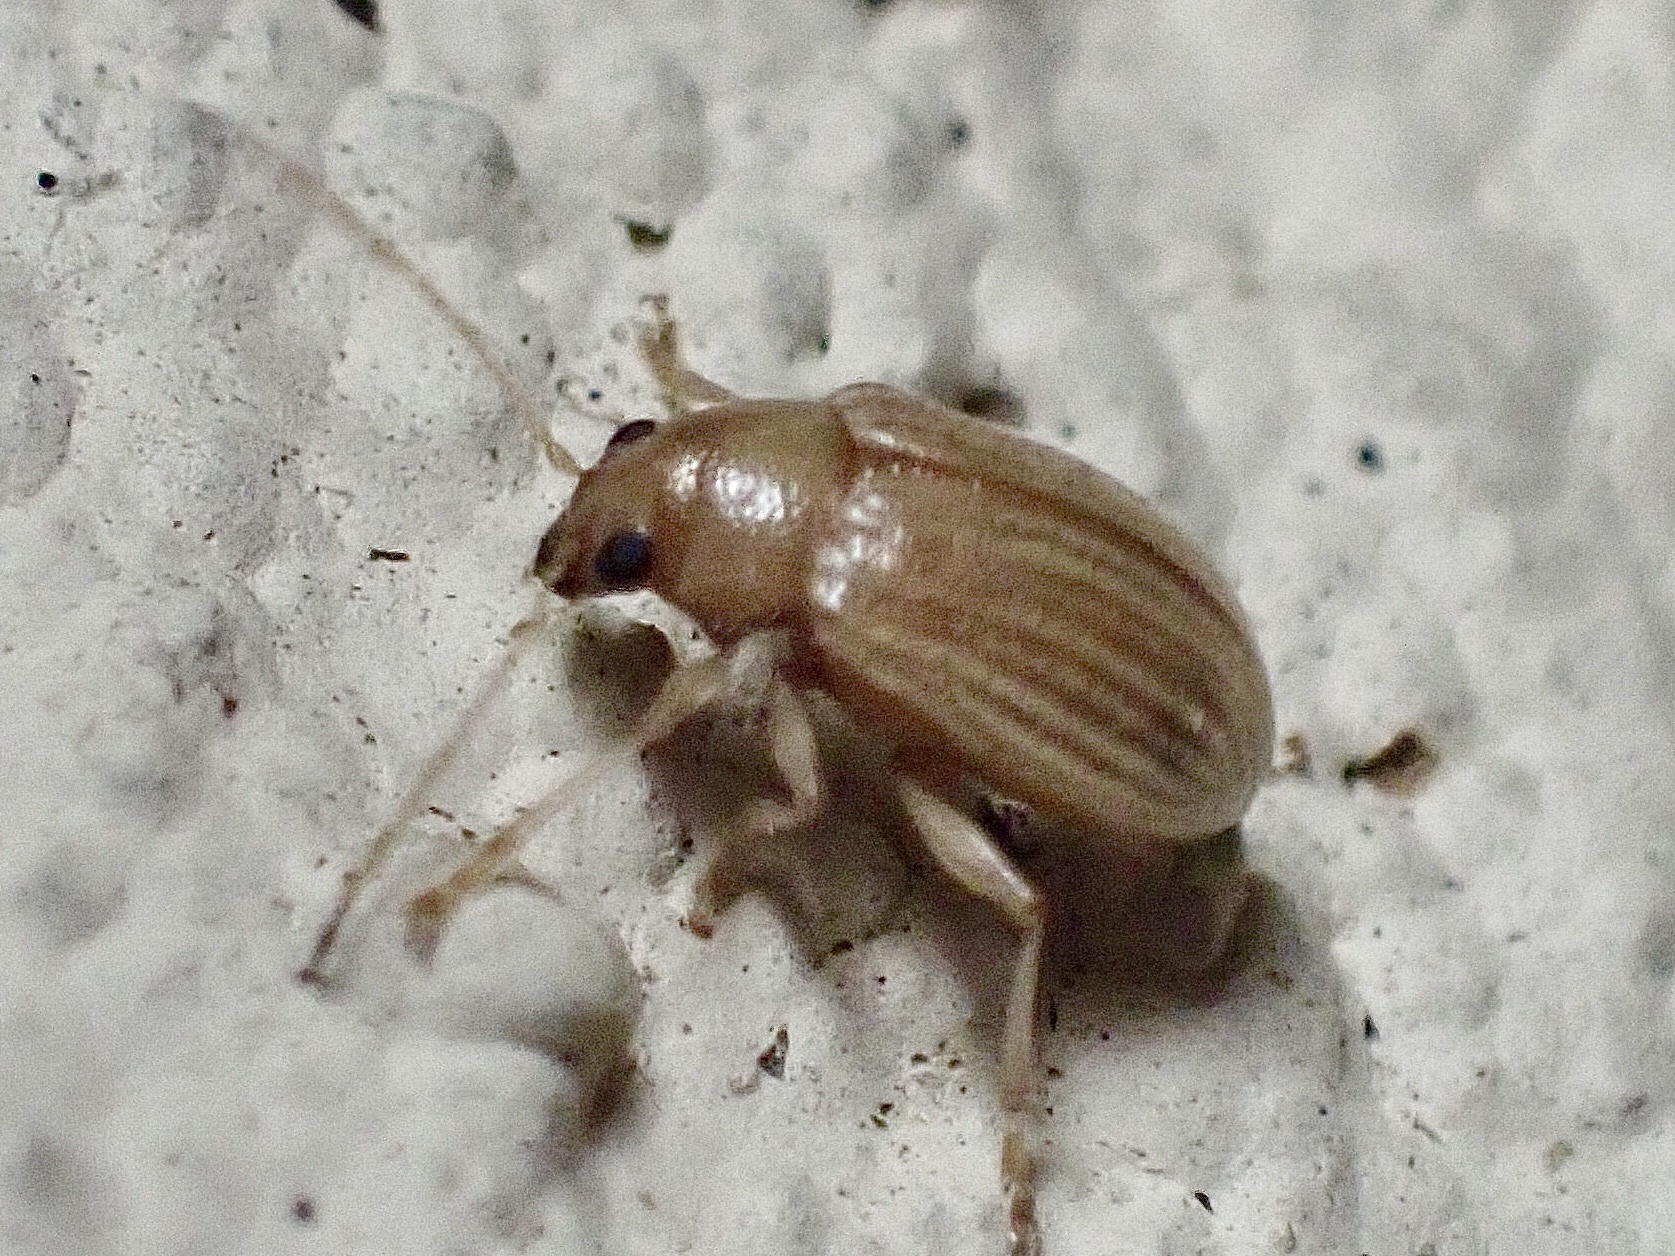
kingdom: Animalia
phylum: Arthropoda
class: Insecta
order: Coleoptera
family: Chrysomelidae
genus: Colaspis
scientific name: Colaspis brunnea
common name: Grape colaspis
